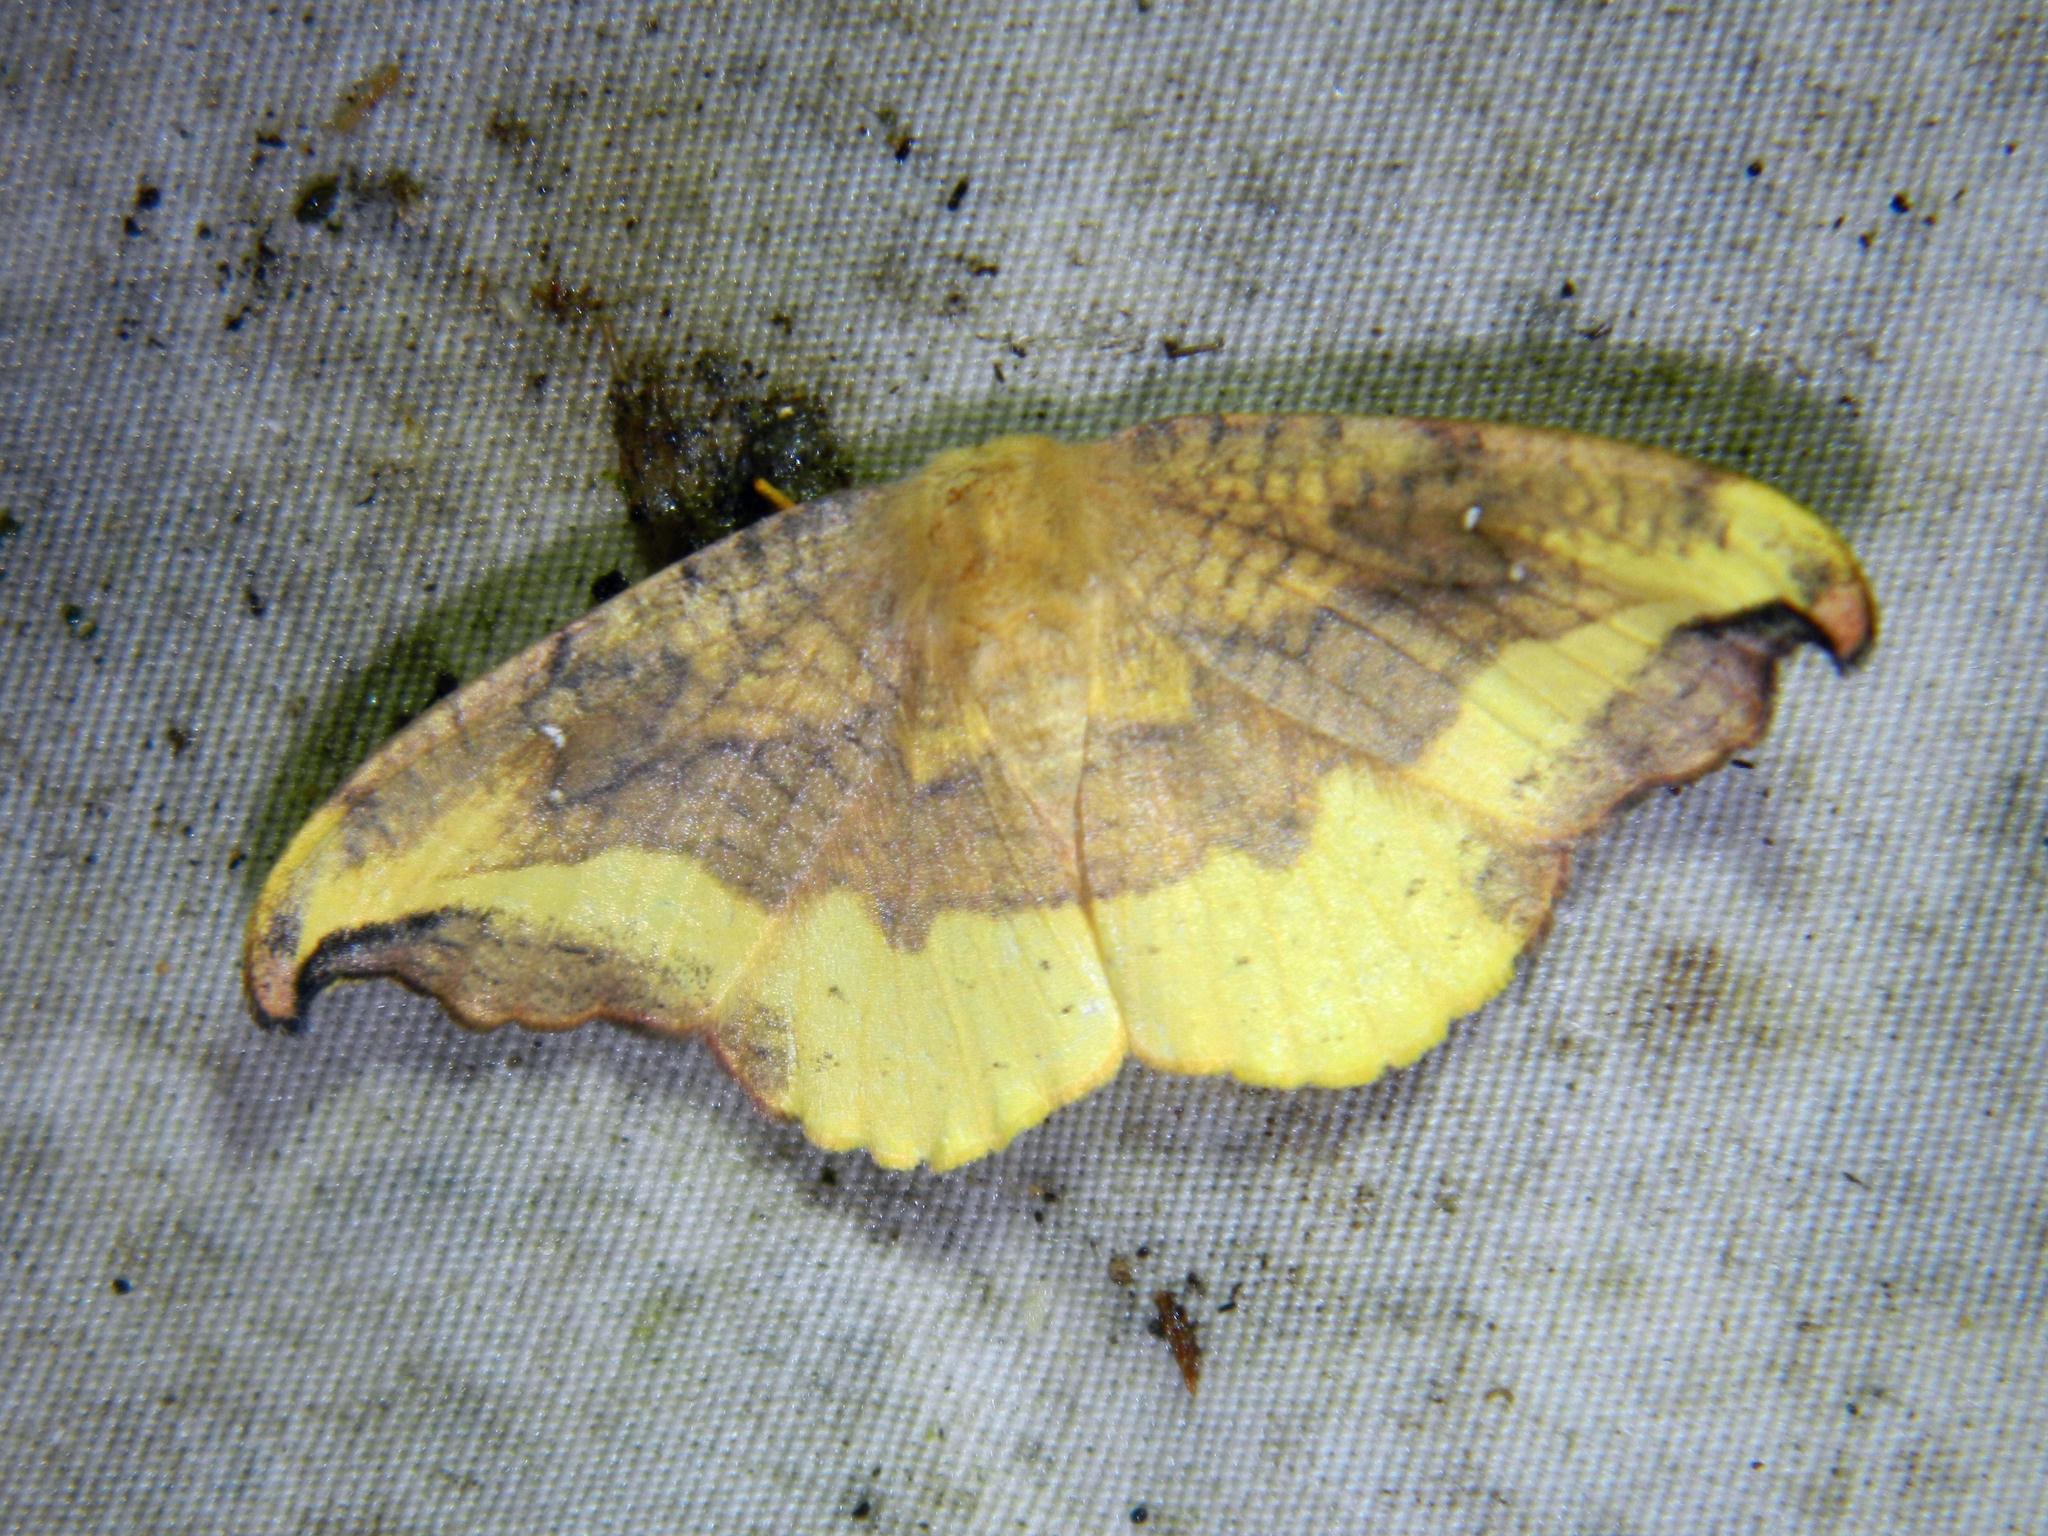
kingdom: Animalia
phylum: Arthropoda
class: Insecta
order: Lepidoptera
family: Drepanidae
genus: Oreta
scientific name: Oreta rosea
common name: Rose hooktip
